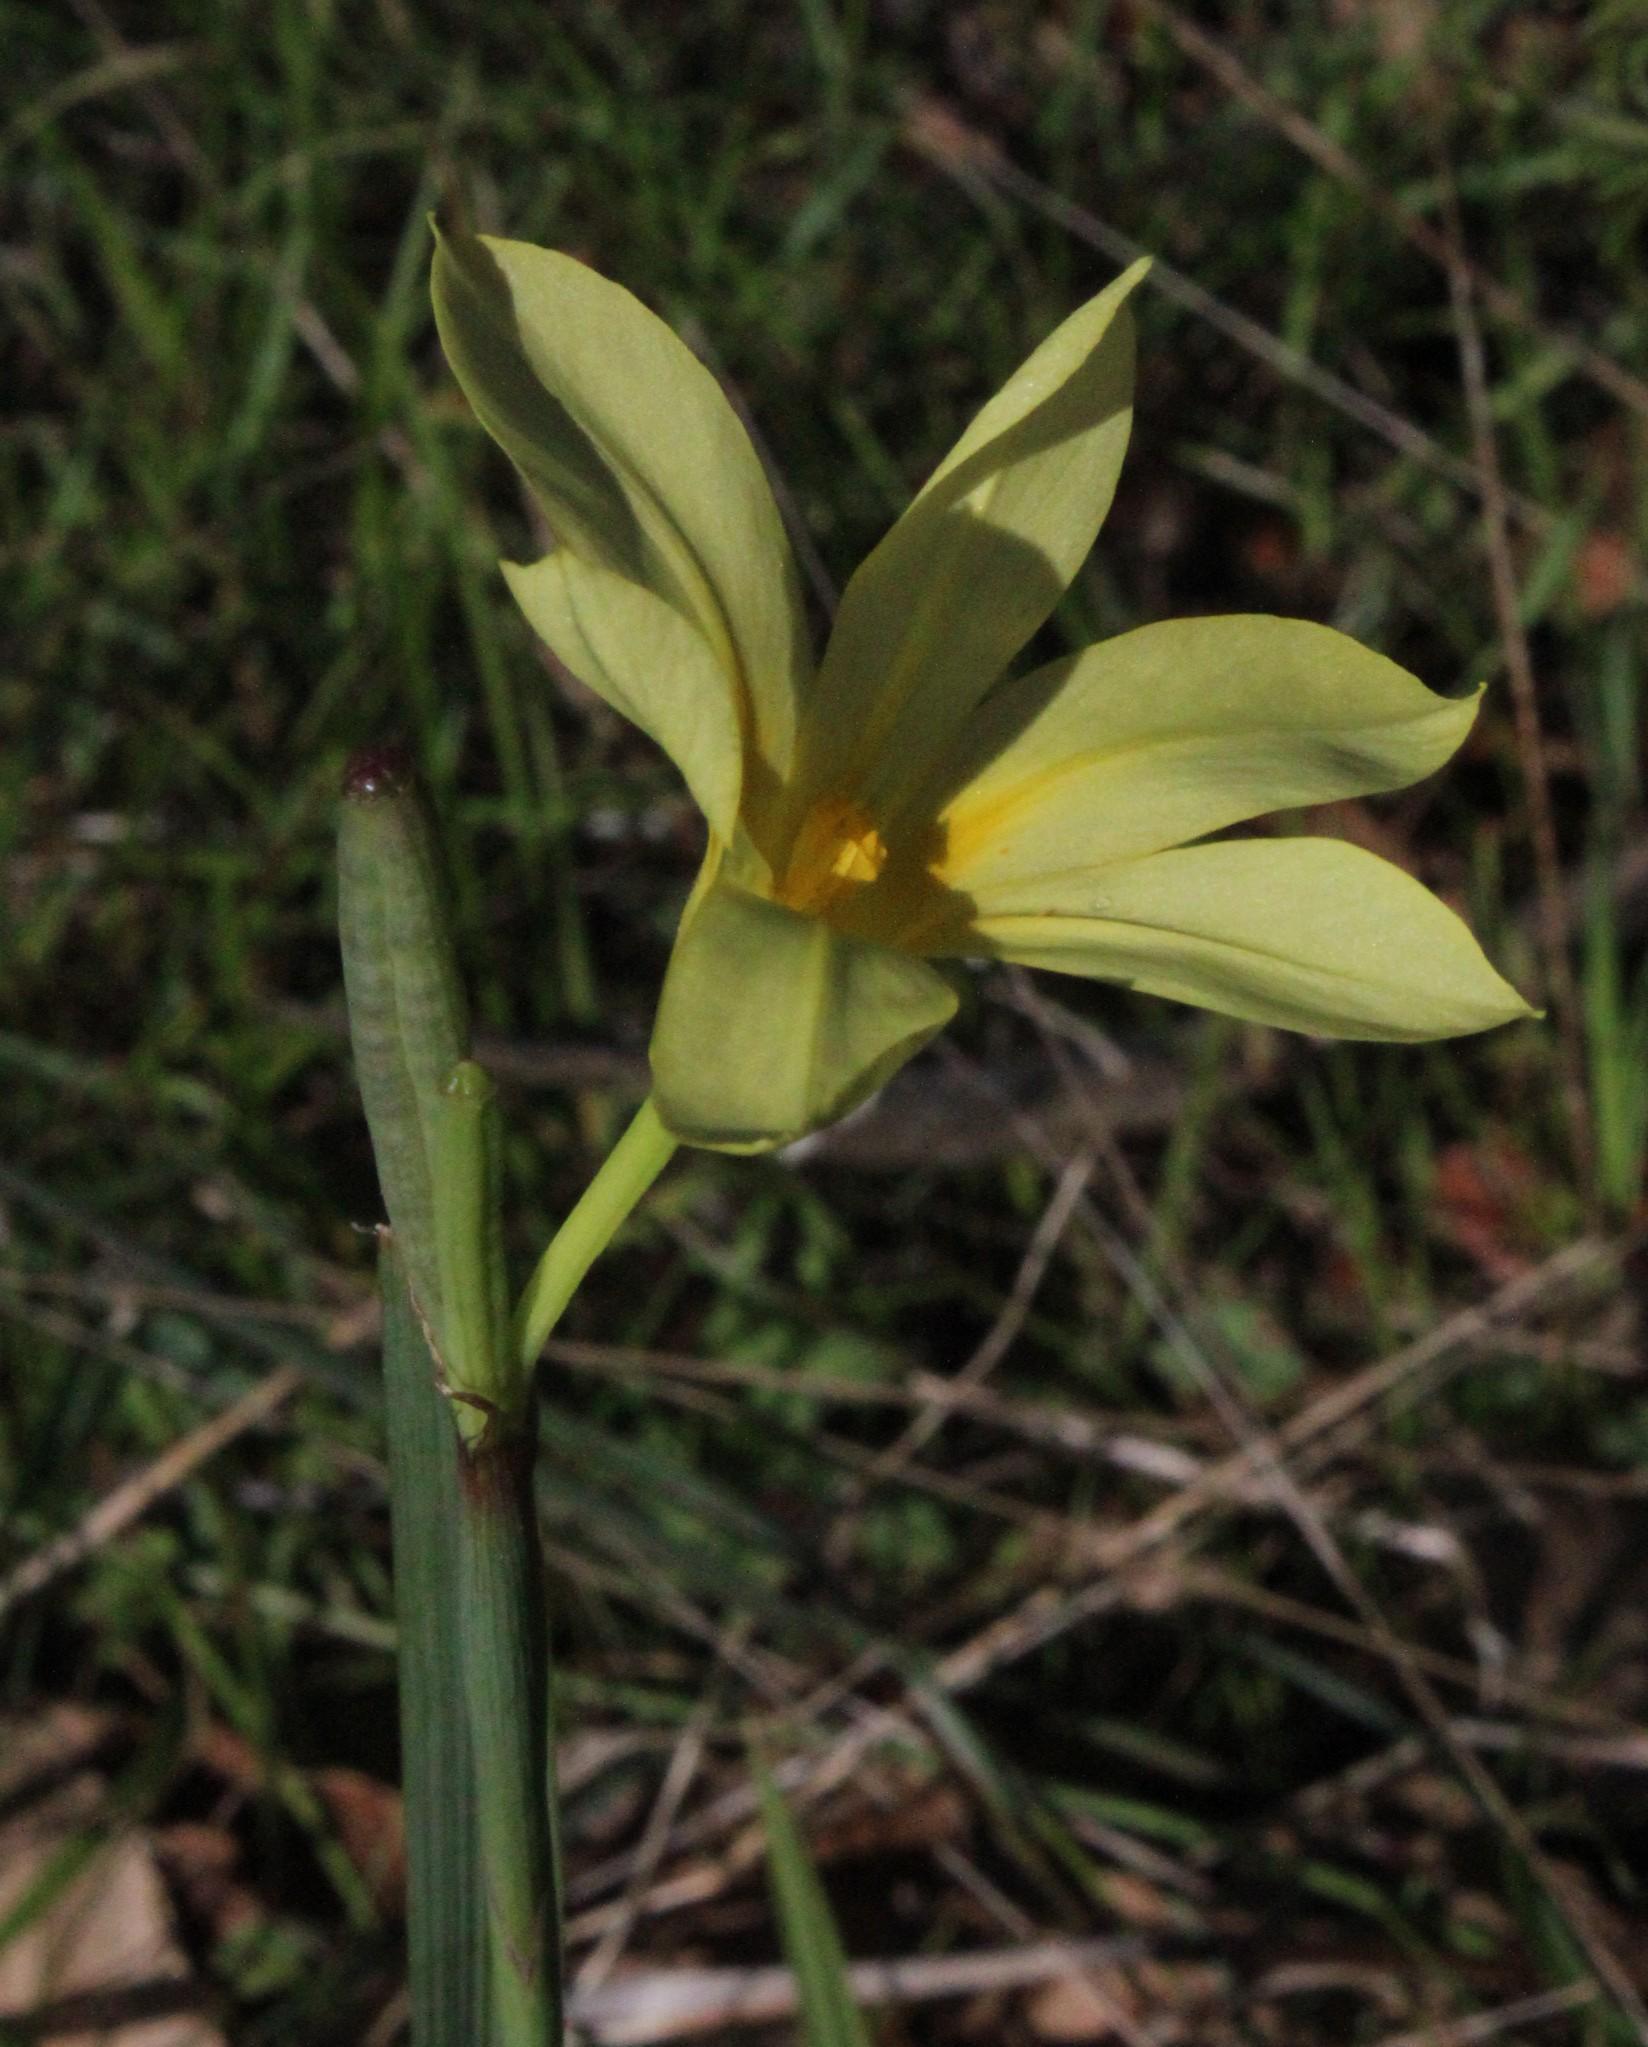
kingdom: Plantae
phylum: Tracheophyta
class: Liliopsida
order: Asparagales
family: Iridaceae
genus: Moraea
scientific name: Moraea collina
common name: Cape-tulip
